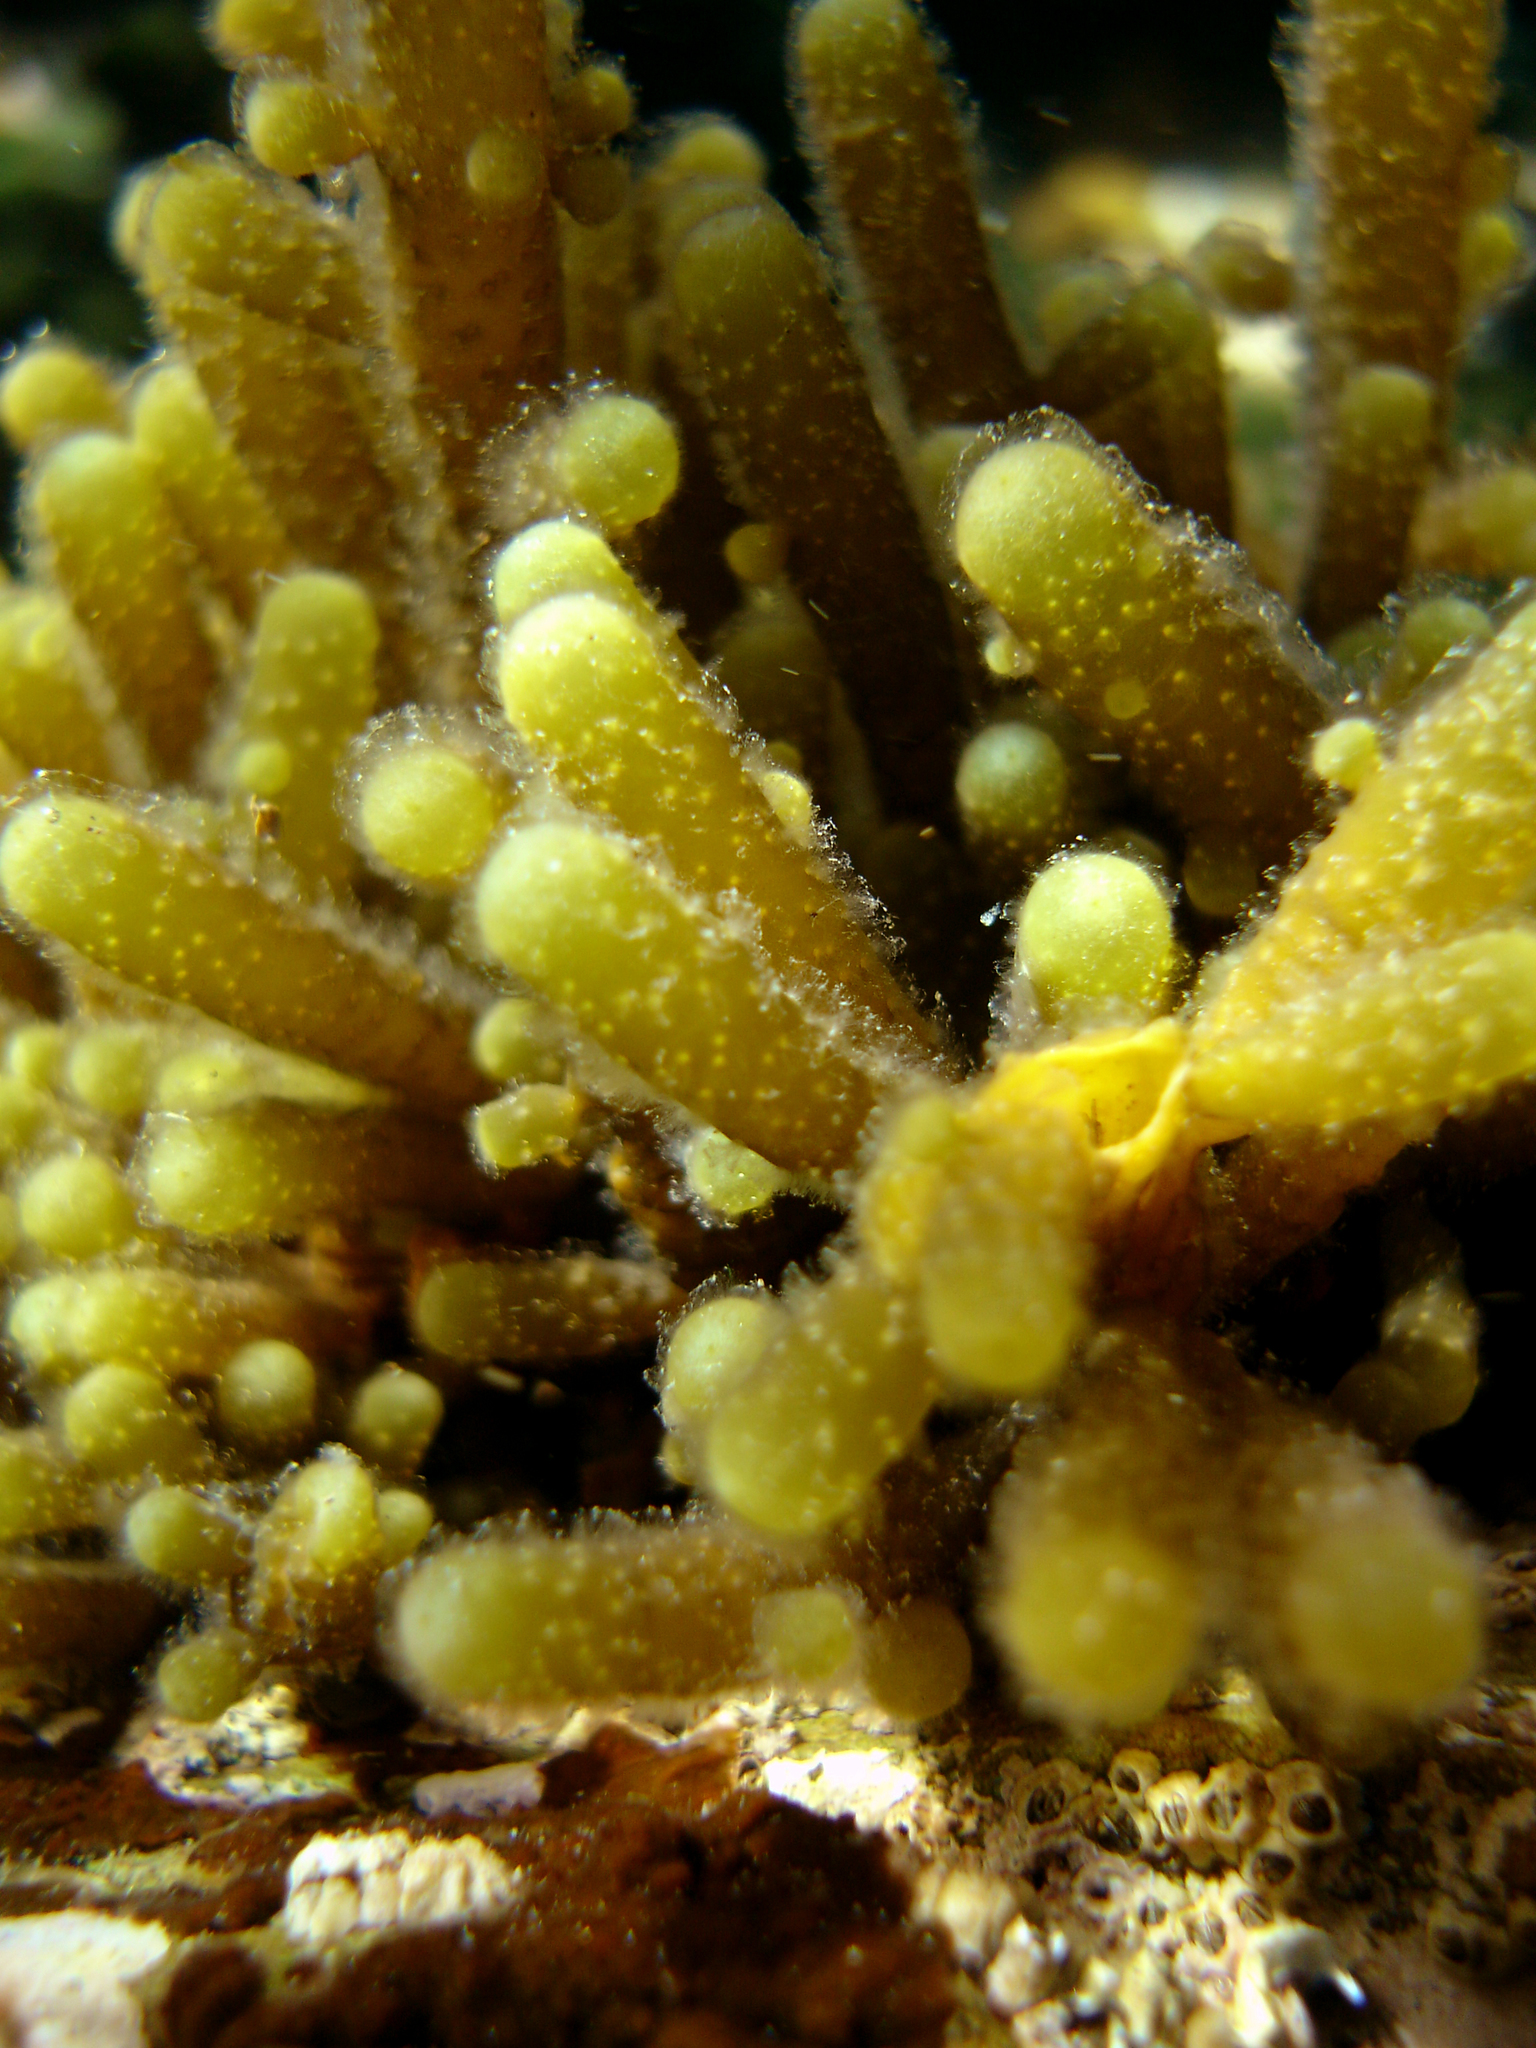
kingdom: Chromista
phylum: Ochrophyta
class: Phaeophyceae
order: Scytothamnales
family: Splachnidiaceae
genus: Splachnidium
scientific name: Splachnidium rugosum
